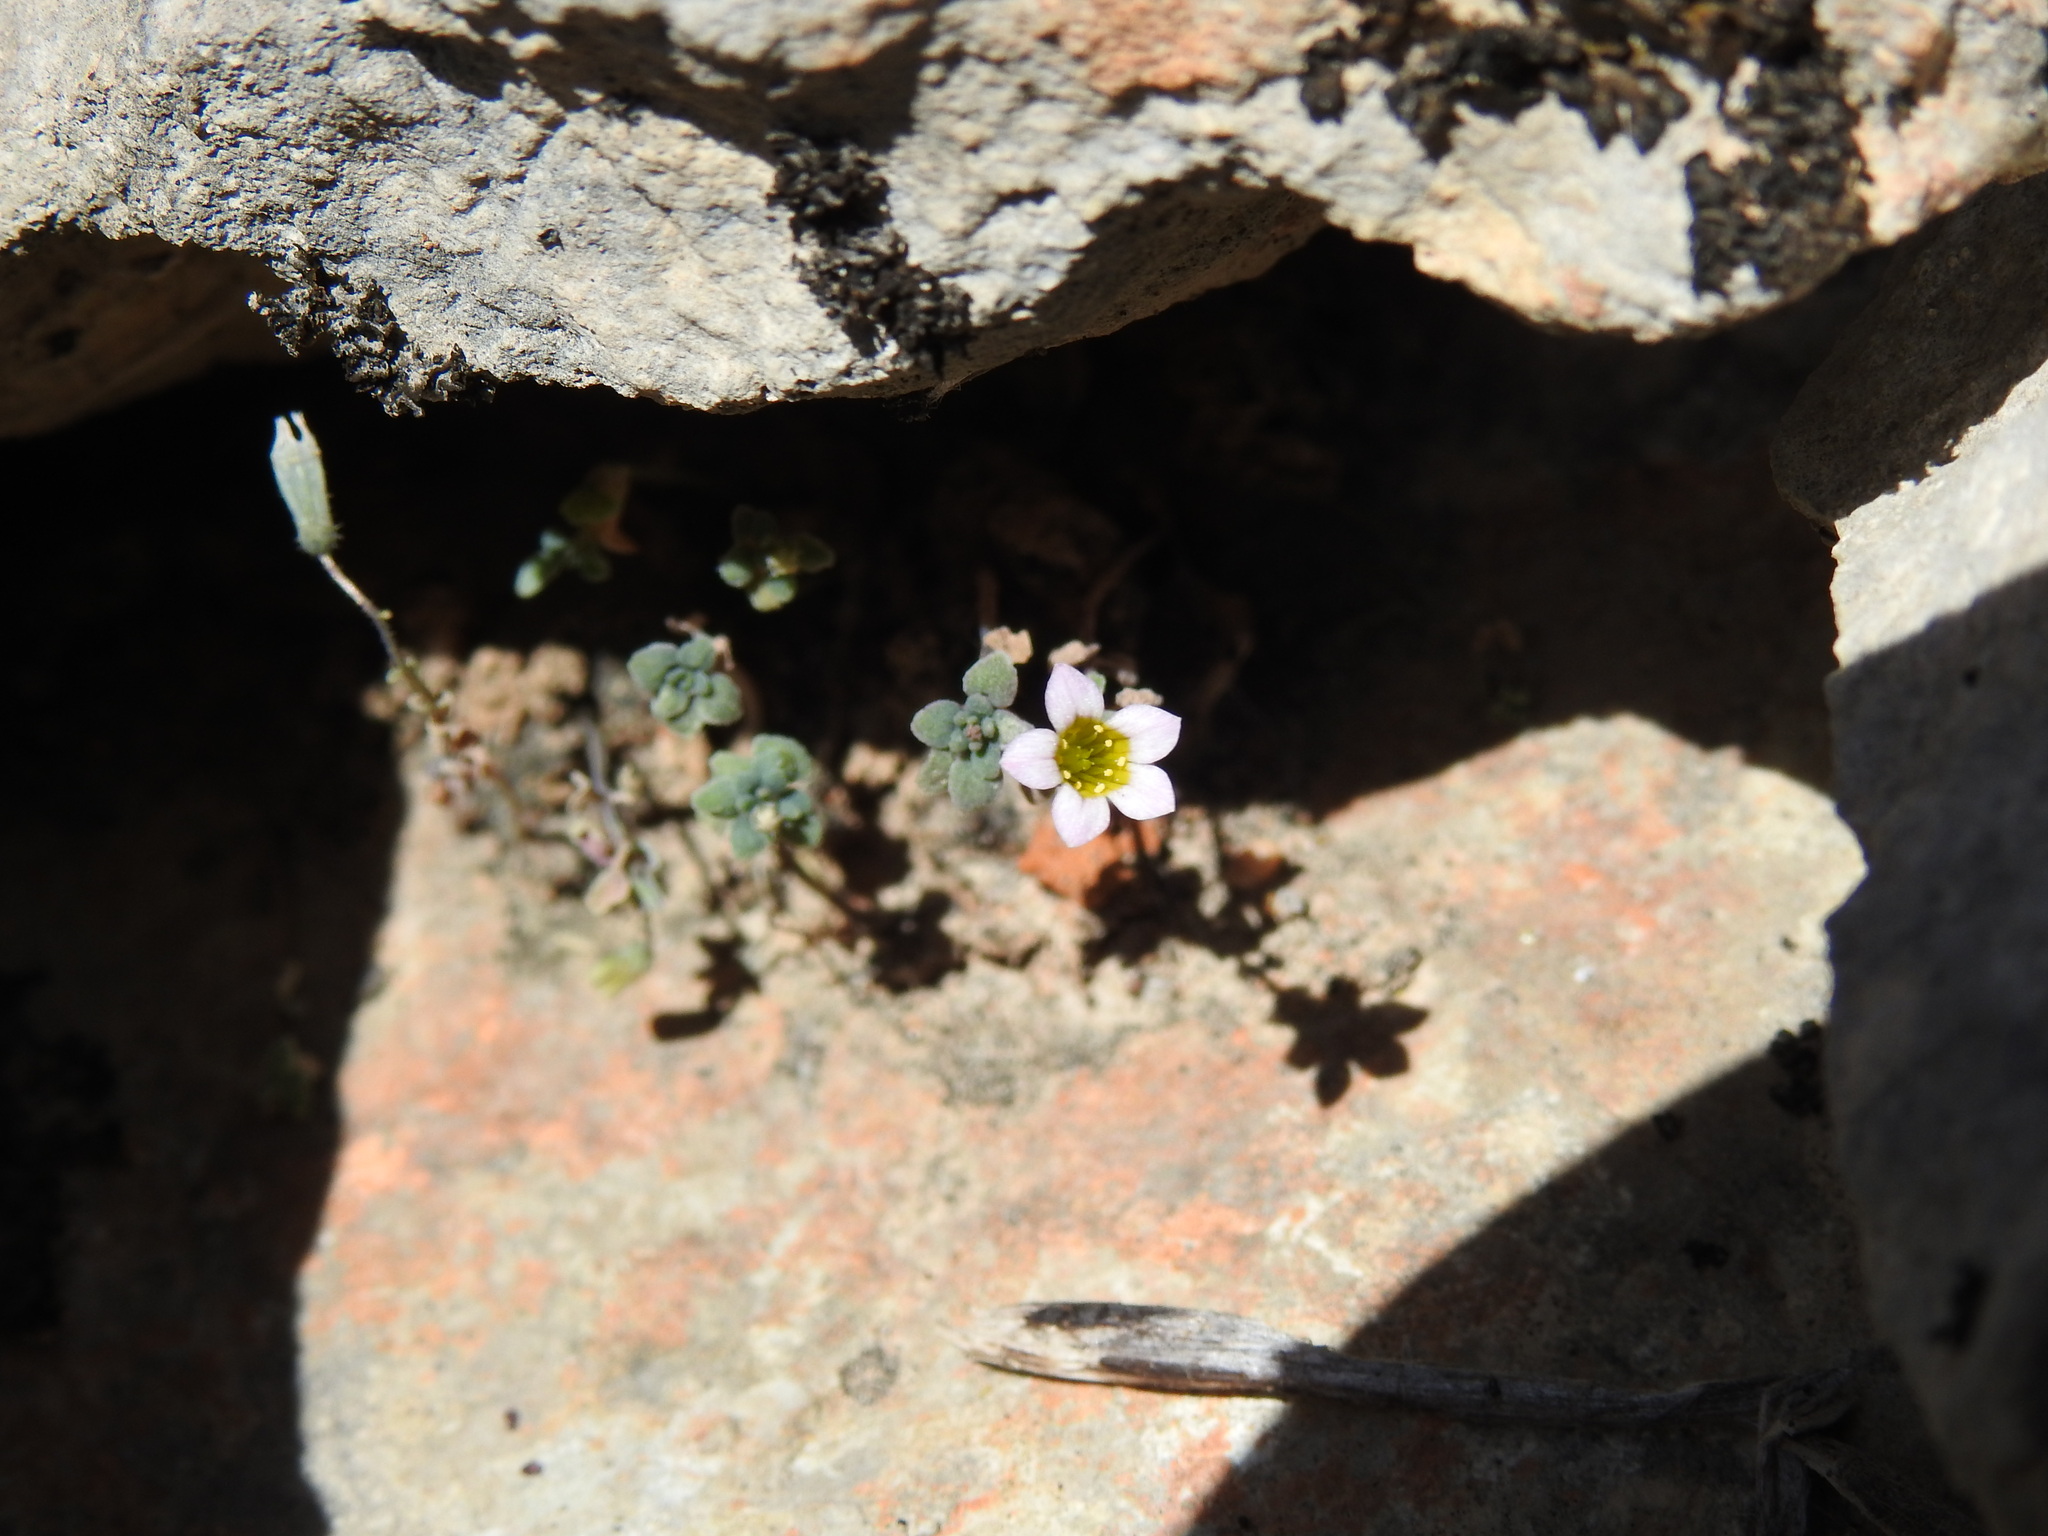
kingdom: Plantae
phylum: Tracheophyta
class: Magnoliopsida
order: Saxifragales
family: Crassulaceae
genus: Sedum
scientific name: Sedum mucizonia
